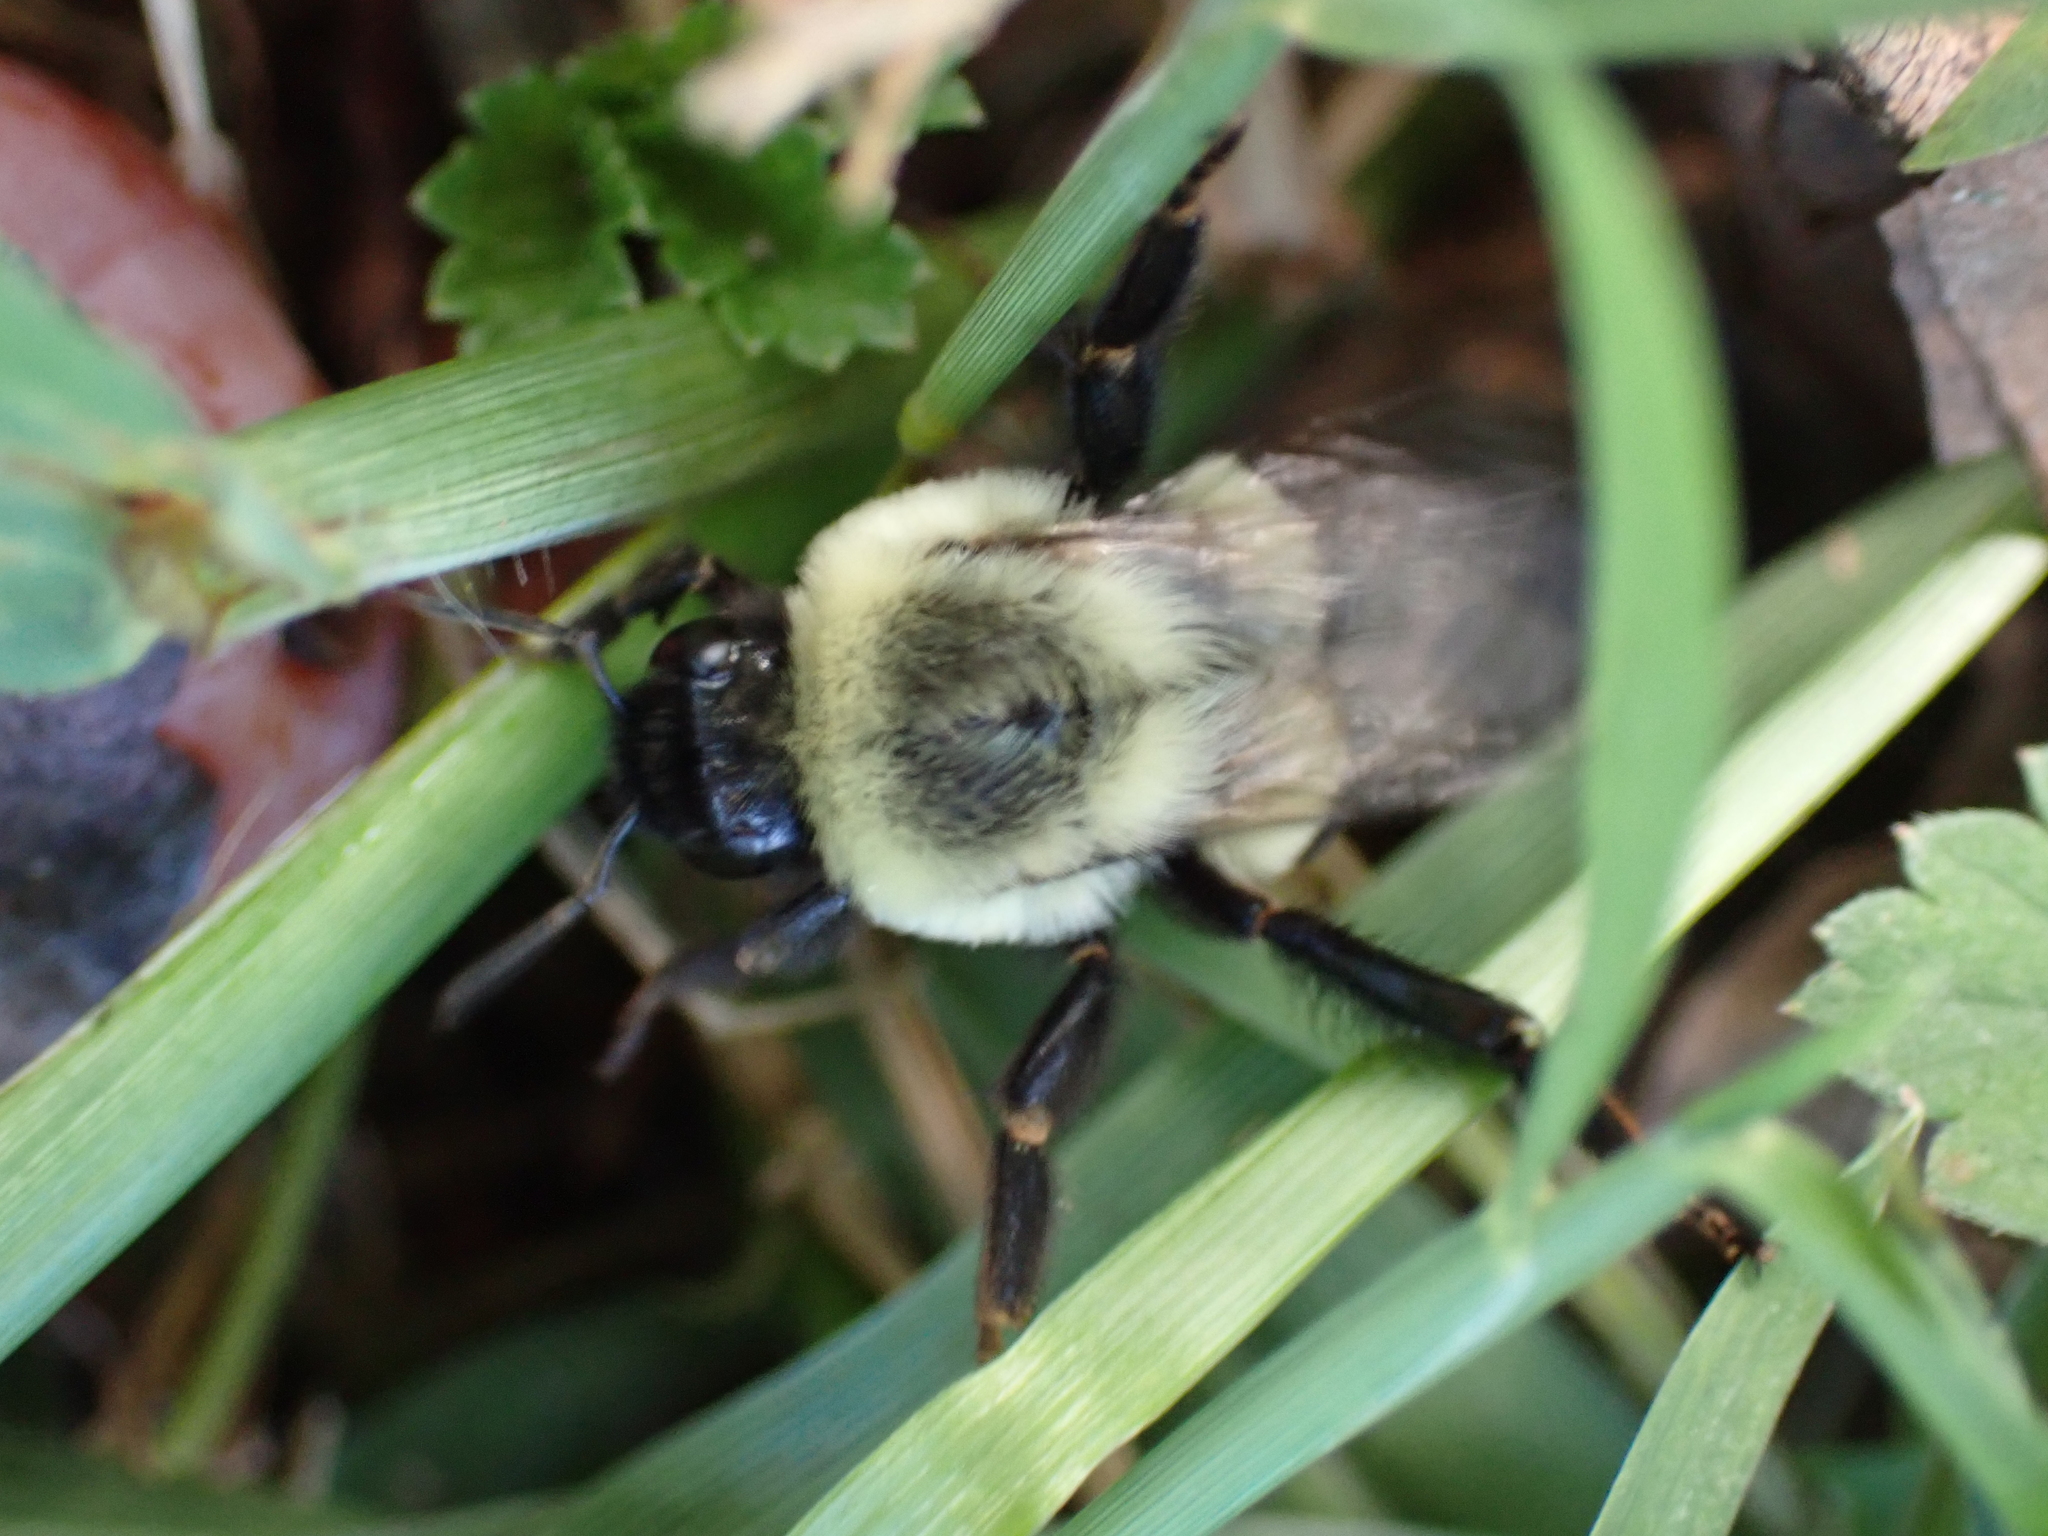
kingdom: Animalia
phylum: Arthropoda
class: Insecta
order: Hymenoptera
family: Apidae
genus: Bombus
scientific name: Bombus impatiens
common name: Common eastern bumble bee
